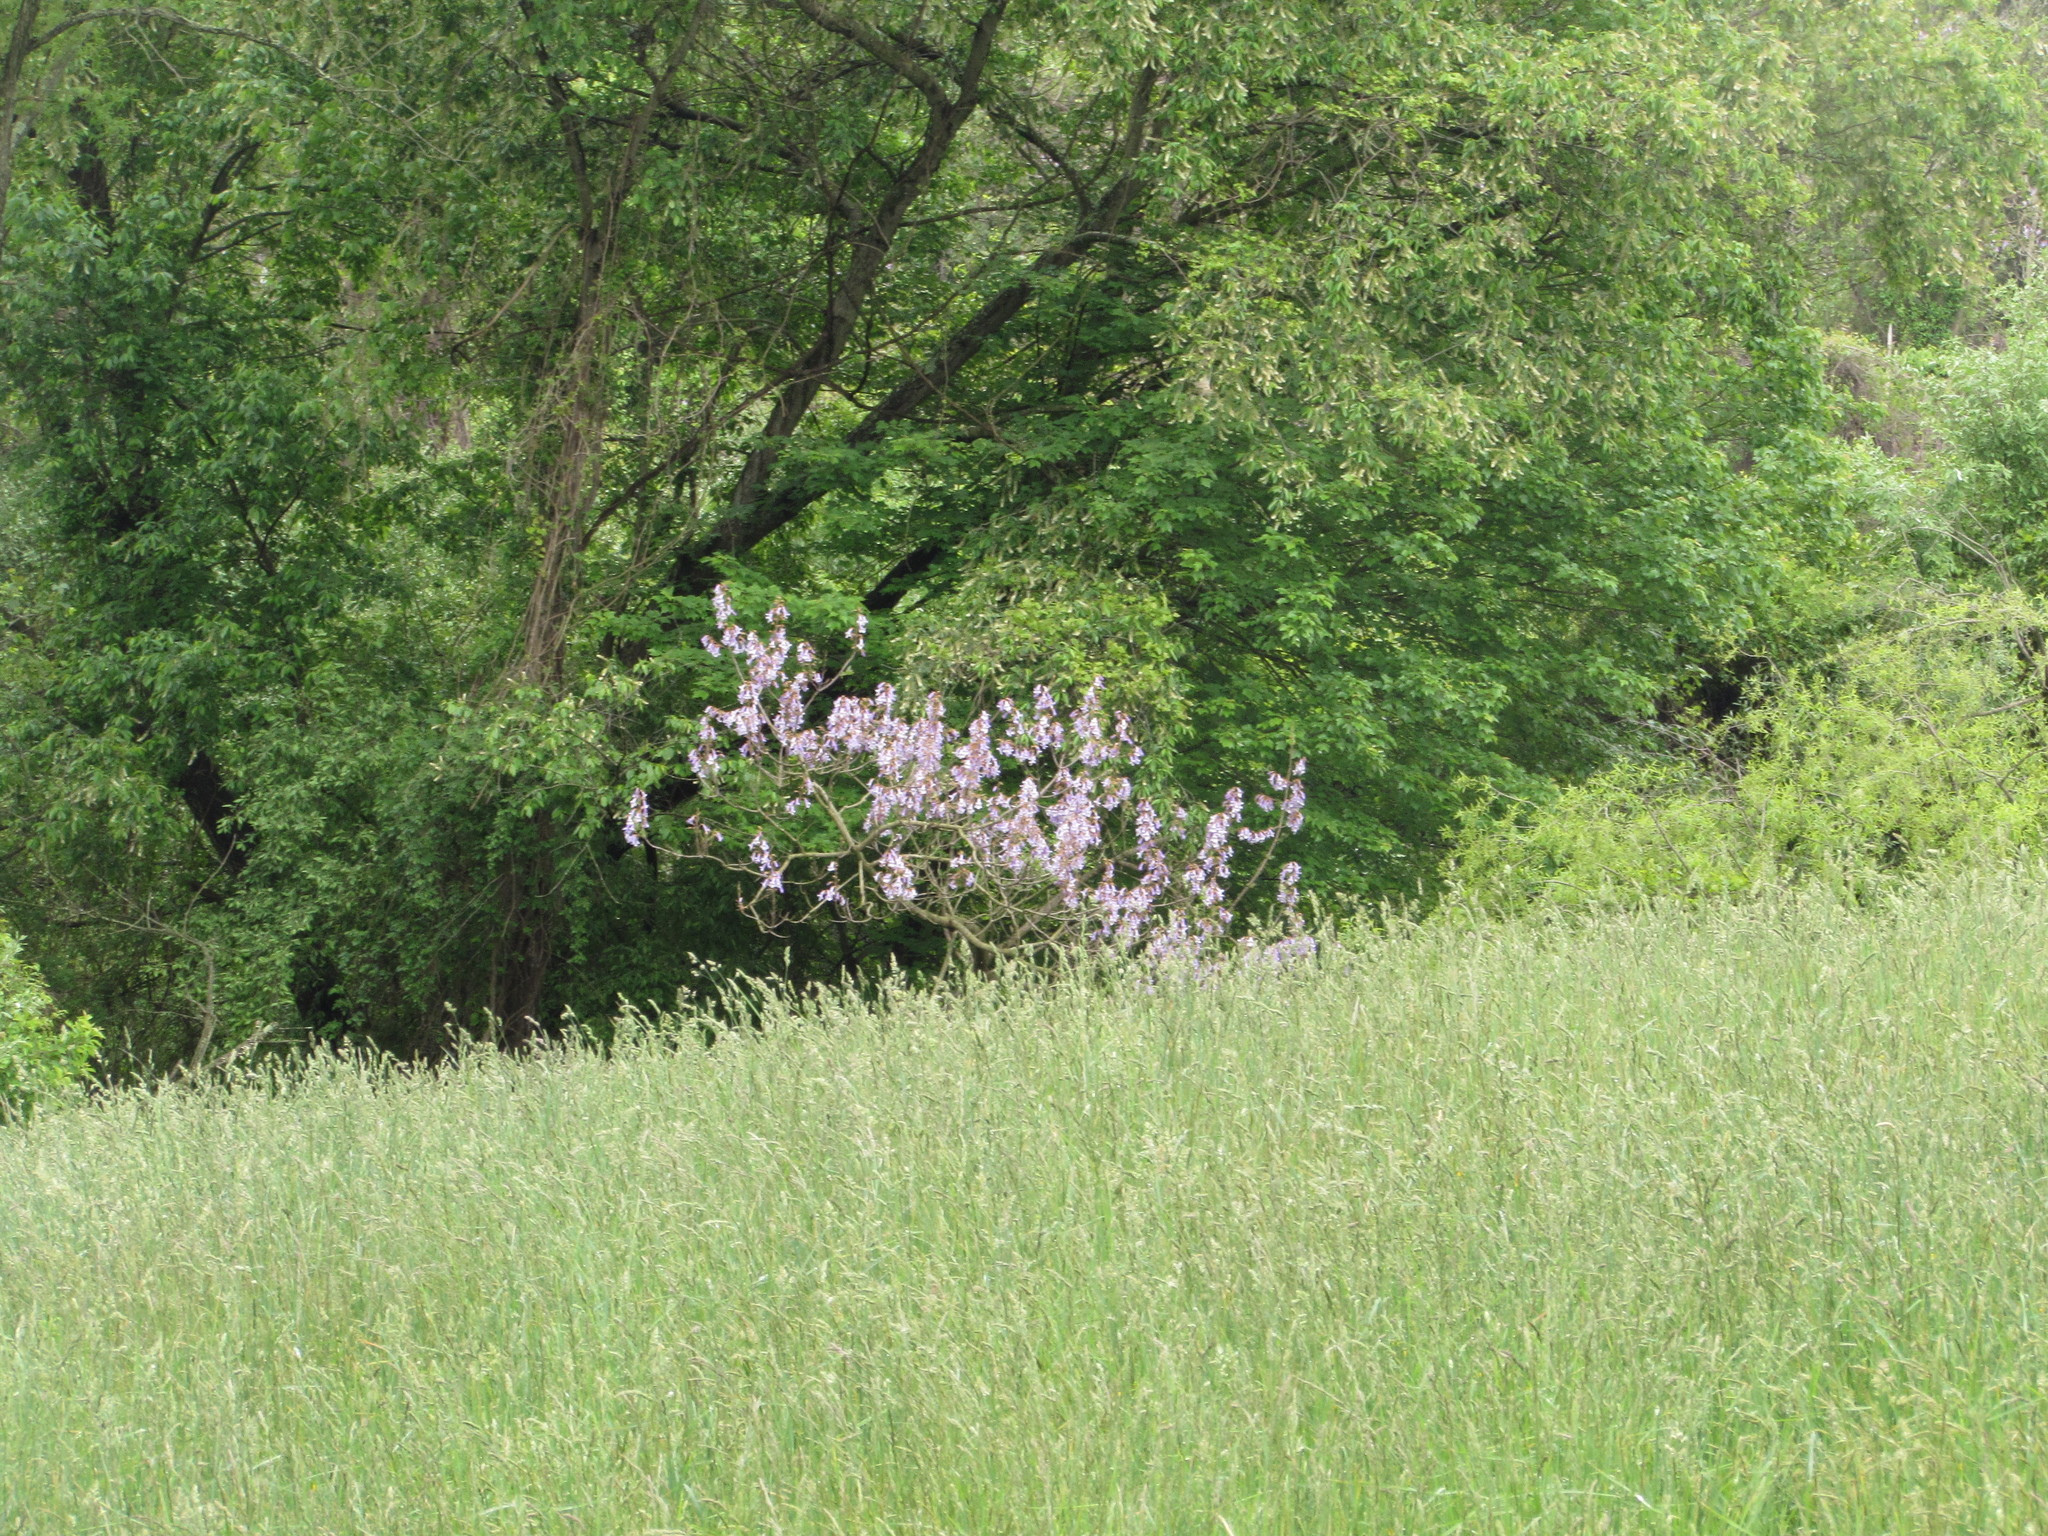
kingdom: Plantae
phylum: Tracheophyta
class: Magnoliopsida
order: Lamiales
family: Paulowniaceae
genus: Paulownia
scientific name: Paulownia tomentosa
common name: Foxglove-tree
